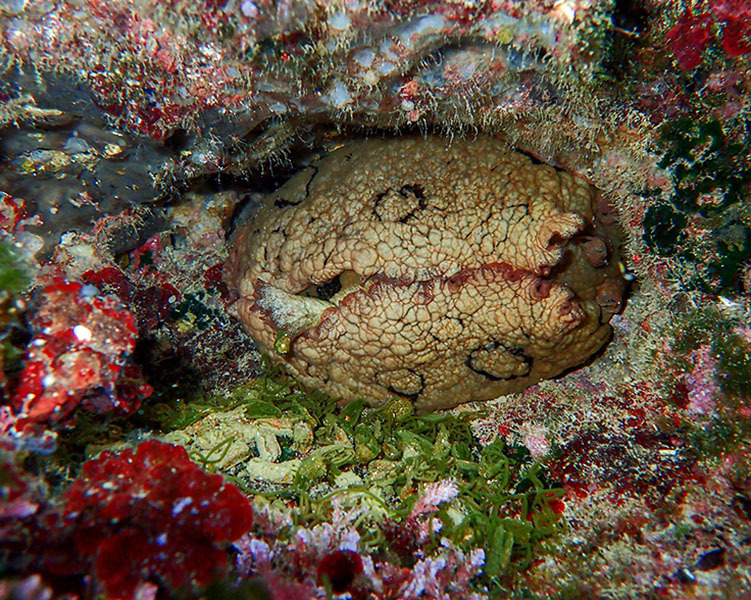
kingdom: Animalia
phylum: Mollusca
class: Gastropoda
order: Aplysiida
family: Aplysiidae
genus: Aplysia
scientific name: Aplysia dactylomela
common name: Large-spotted sea hare
